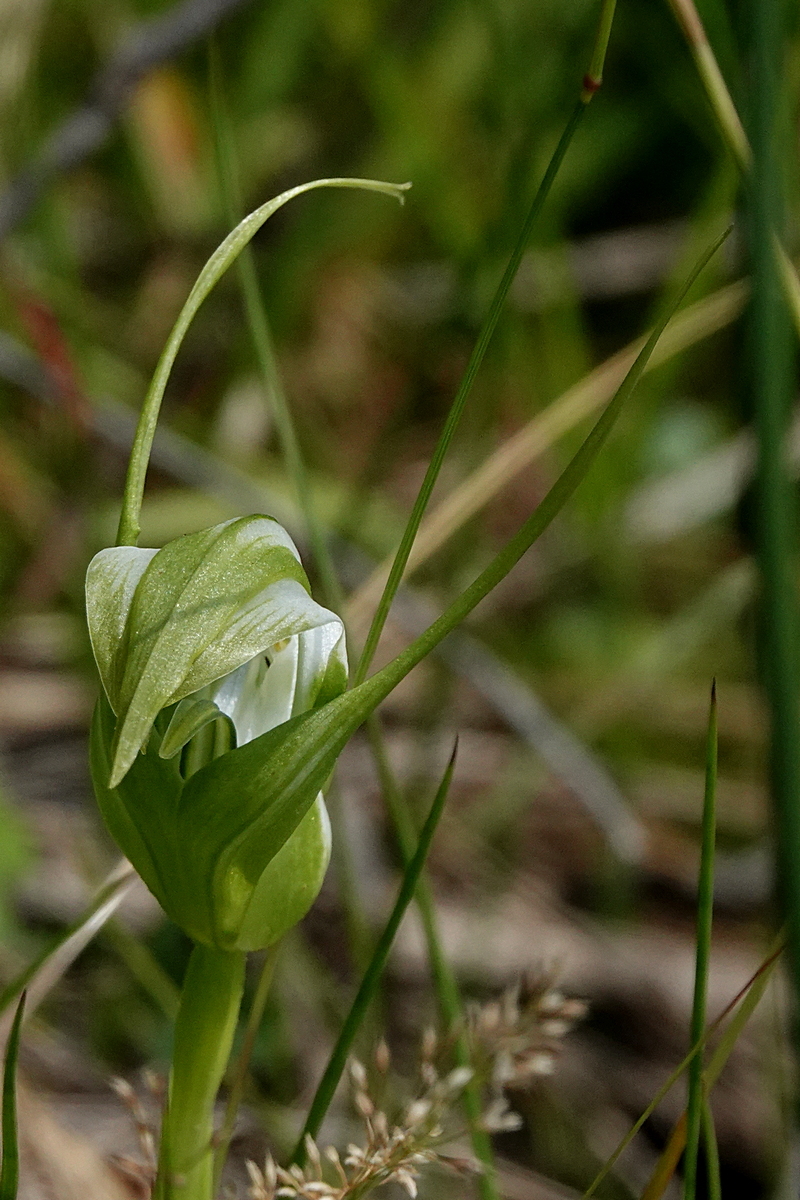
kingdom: Plantae
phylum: Tracheophyta
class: Liliopsida
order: Asparagales
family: Orchidaceae
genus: Pterostylis
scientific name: Pterostylis falcata
